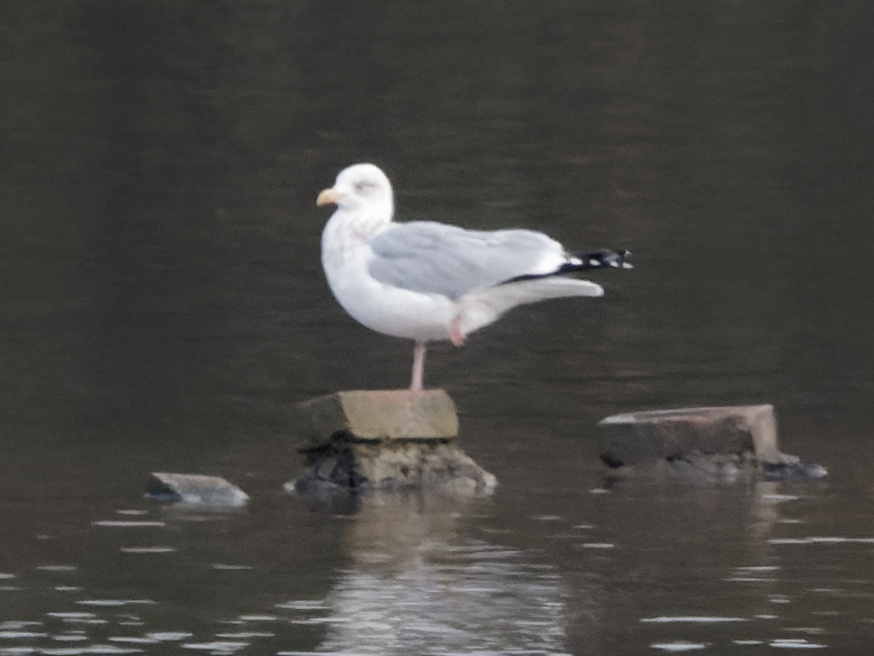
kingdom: Animalia
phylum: Chordata
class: Aves
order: Charadriiformes
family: Laridae
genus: Larus
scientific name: Larus argentatus
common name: Herring gull
